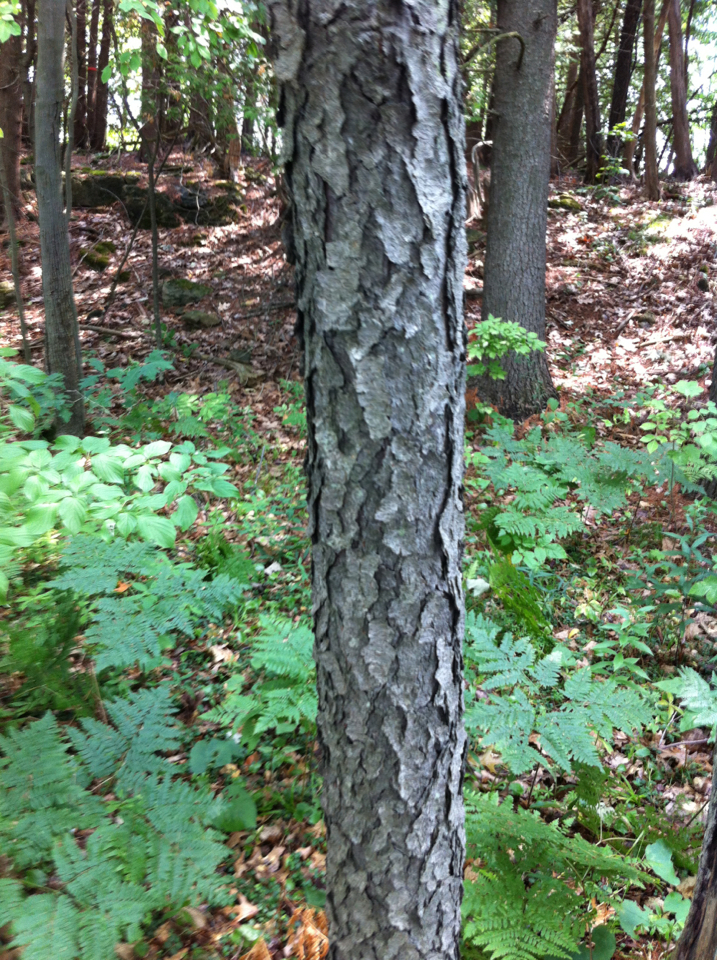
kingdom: Plantae
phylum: Tracheophyta
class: Magnoliopsida
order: Rosales
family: Rosaceae
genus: Prunus
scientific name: Prunus serotina
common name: Black cherry
